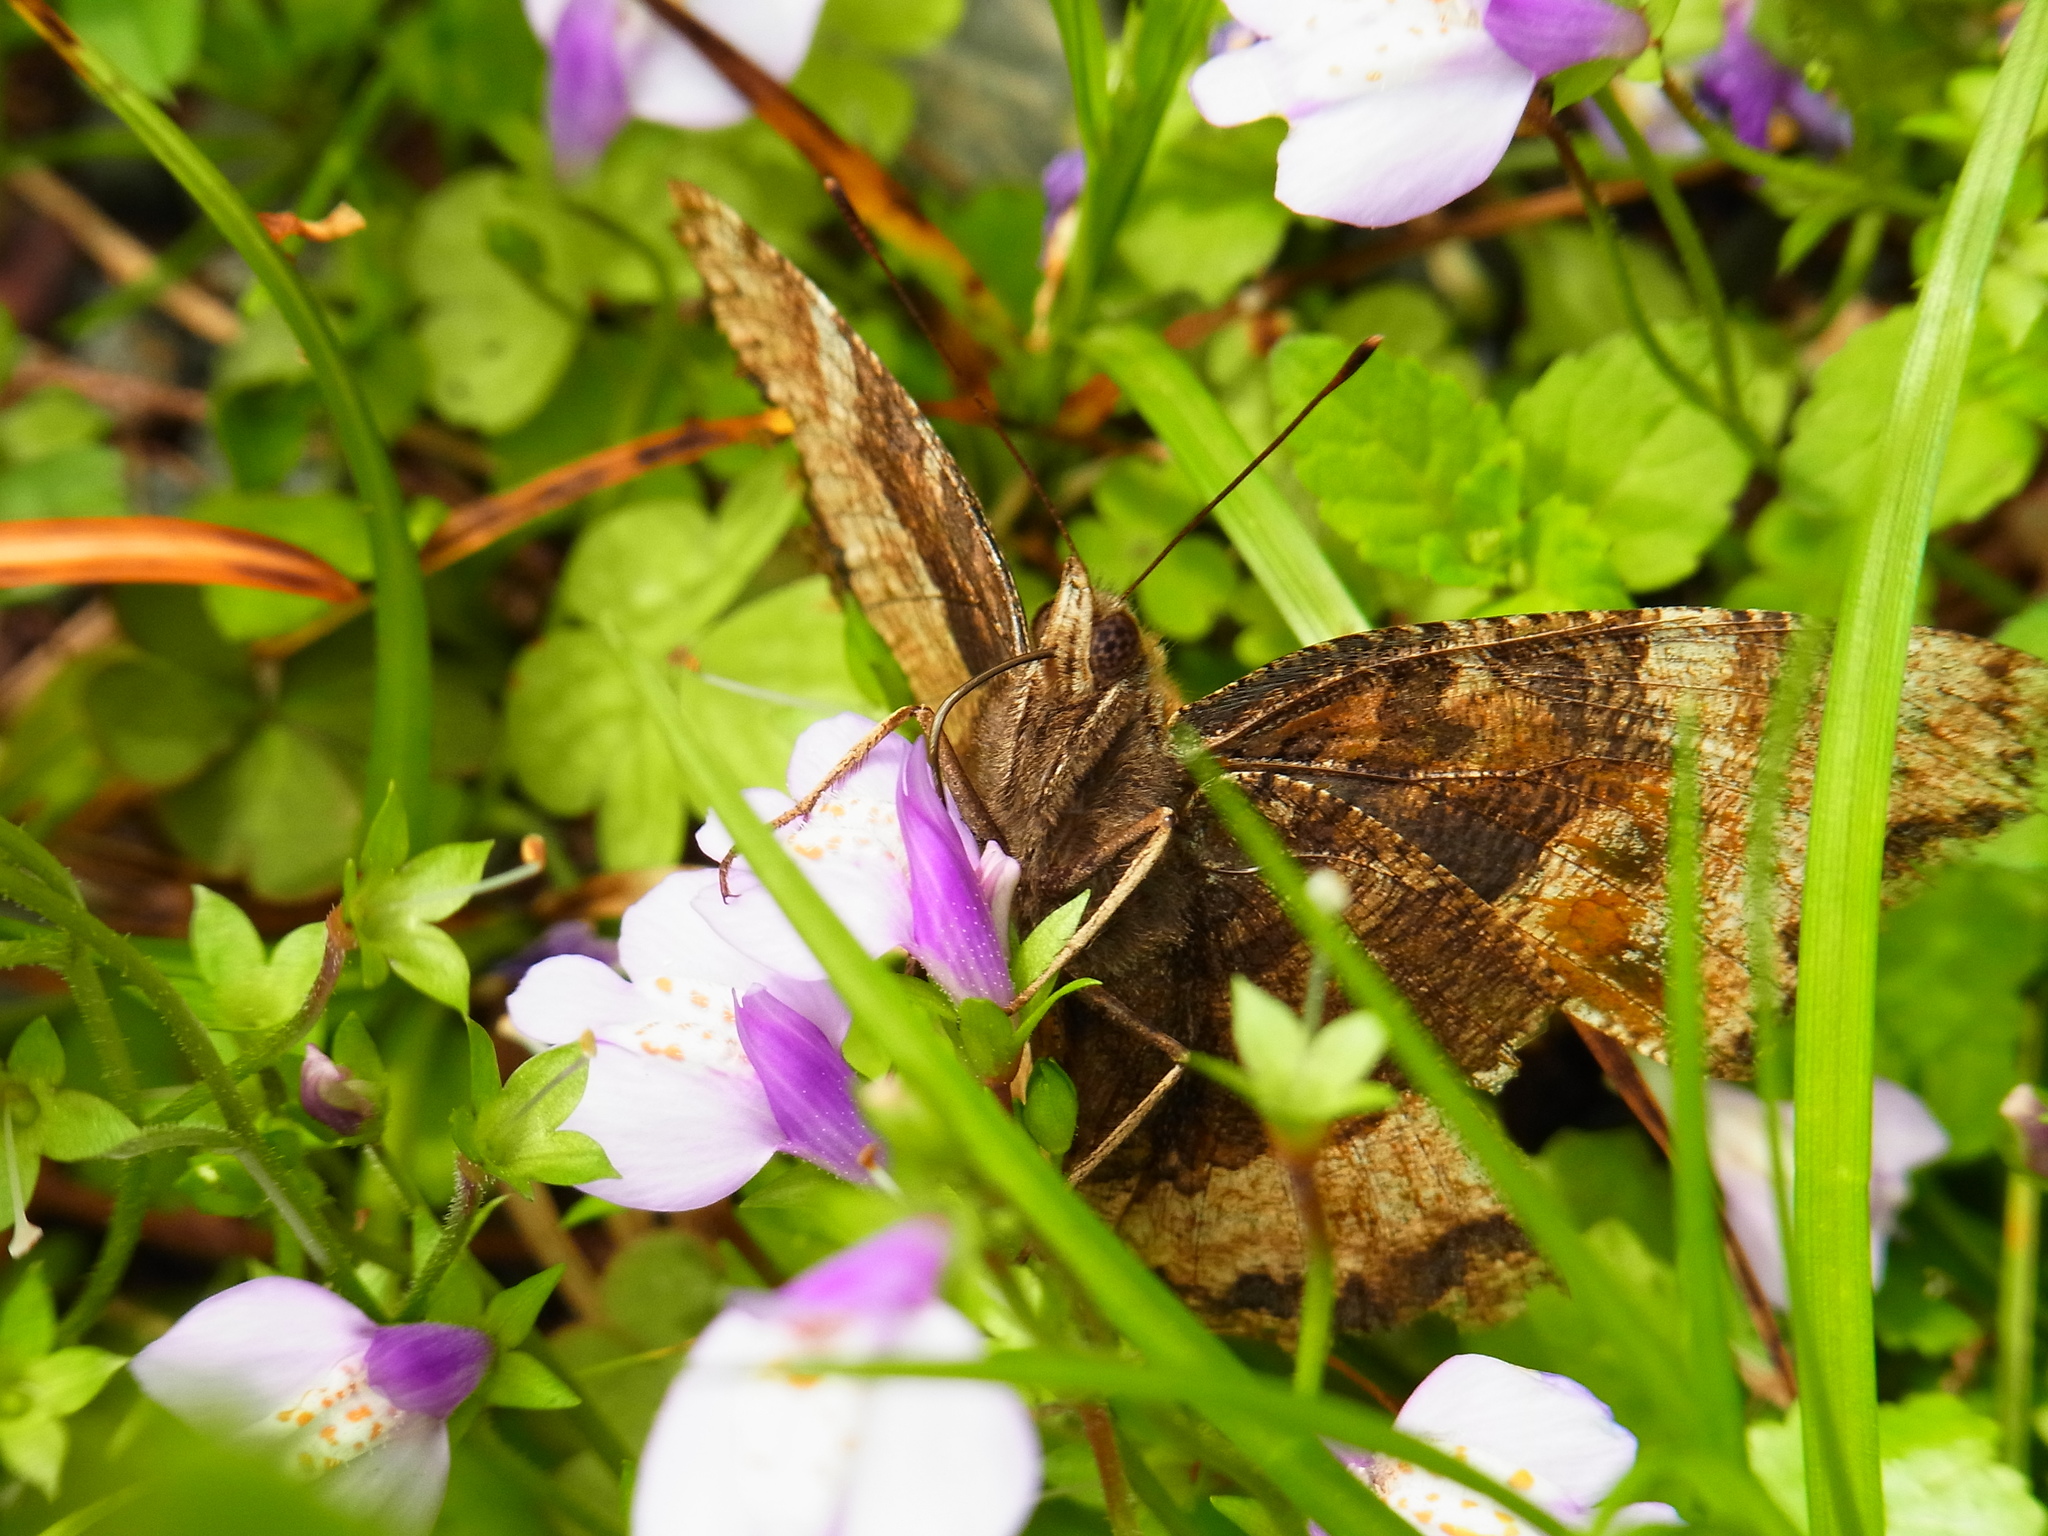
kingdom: Animalia
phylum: Arthropoda
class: Insecta
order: Lepidoptera
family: Nymphalidae
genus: Nymphalis
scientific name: Nymphalis xanthomelas
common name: Scarce tortoiseshell
